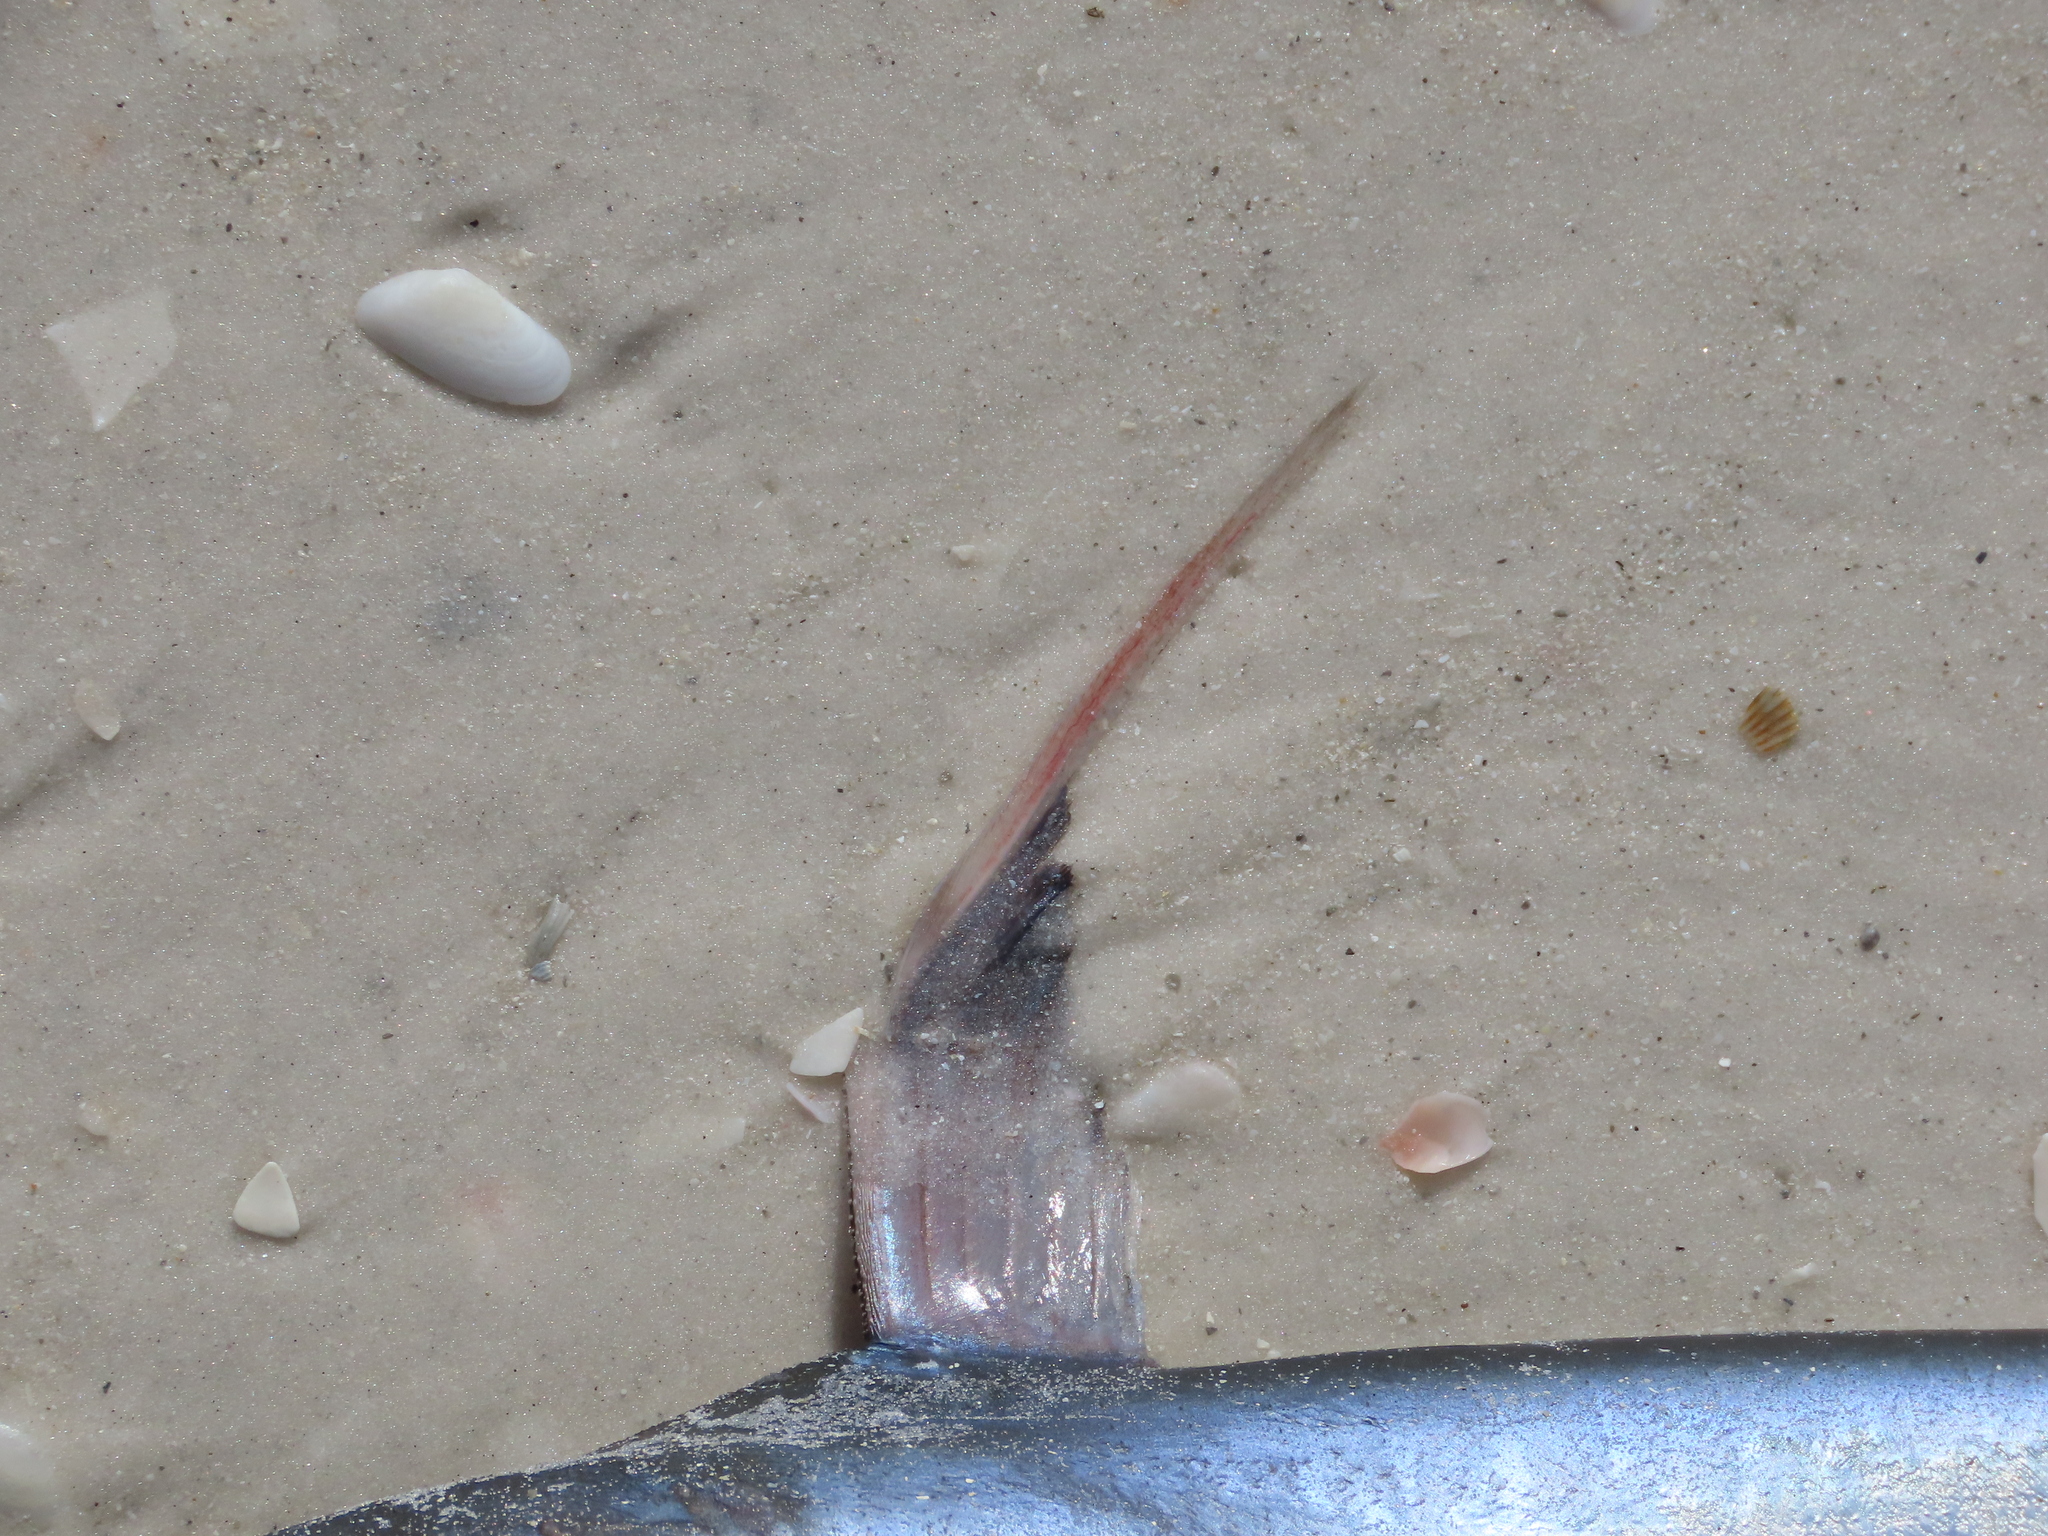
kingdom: Animalia
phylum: Chordata
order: Siluriformes
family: Ariidae
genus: Bagre
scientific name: Bagre marinus
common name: Gafftopsail sea catfish
